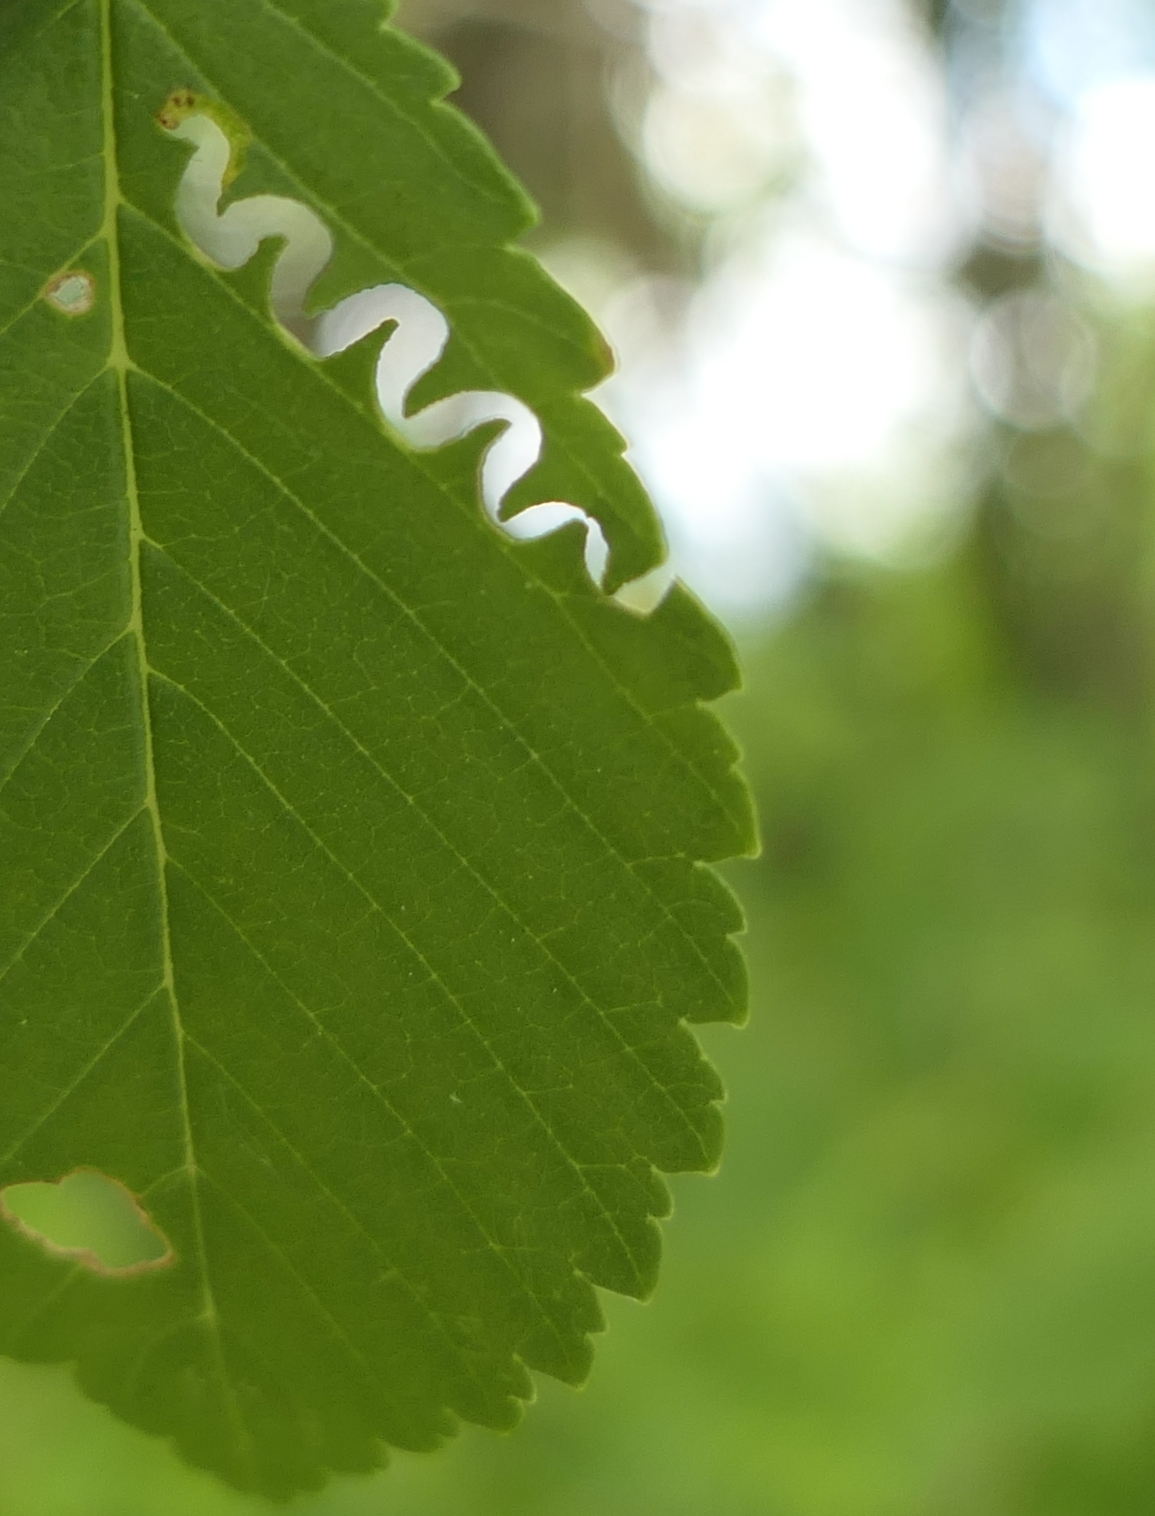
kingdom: Animalia
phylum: Arthropoda
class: Insecta
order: Hymenoptera
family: Argidae
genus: Aproceros
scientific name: Aproceros leucopoda
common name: Zig-zag elm sawfly
